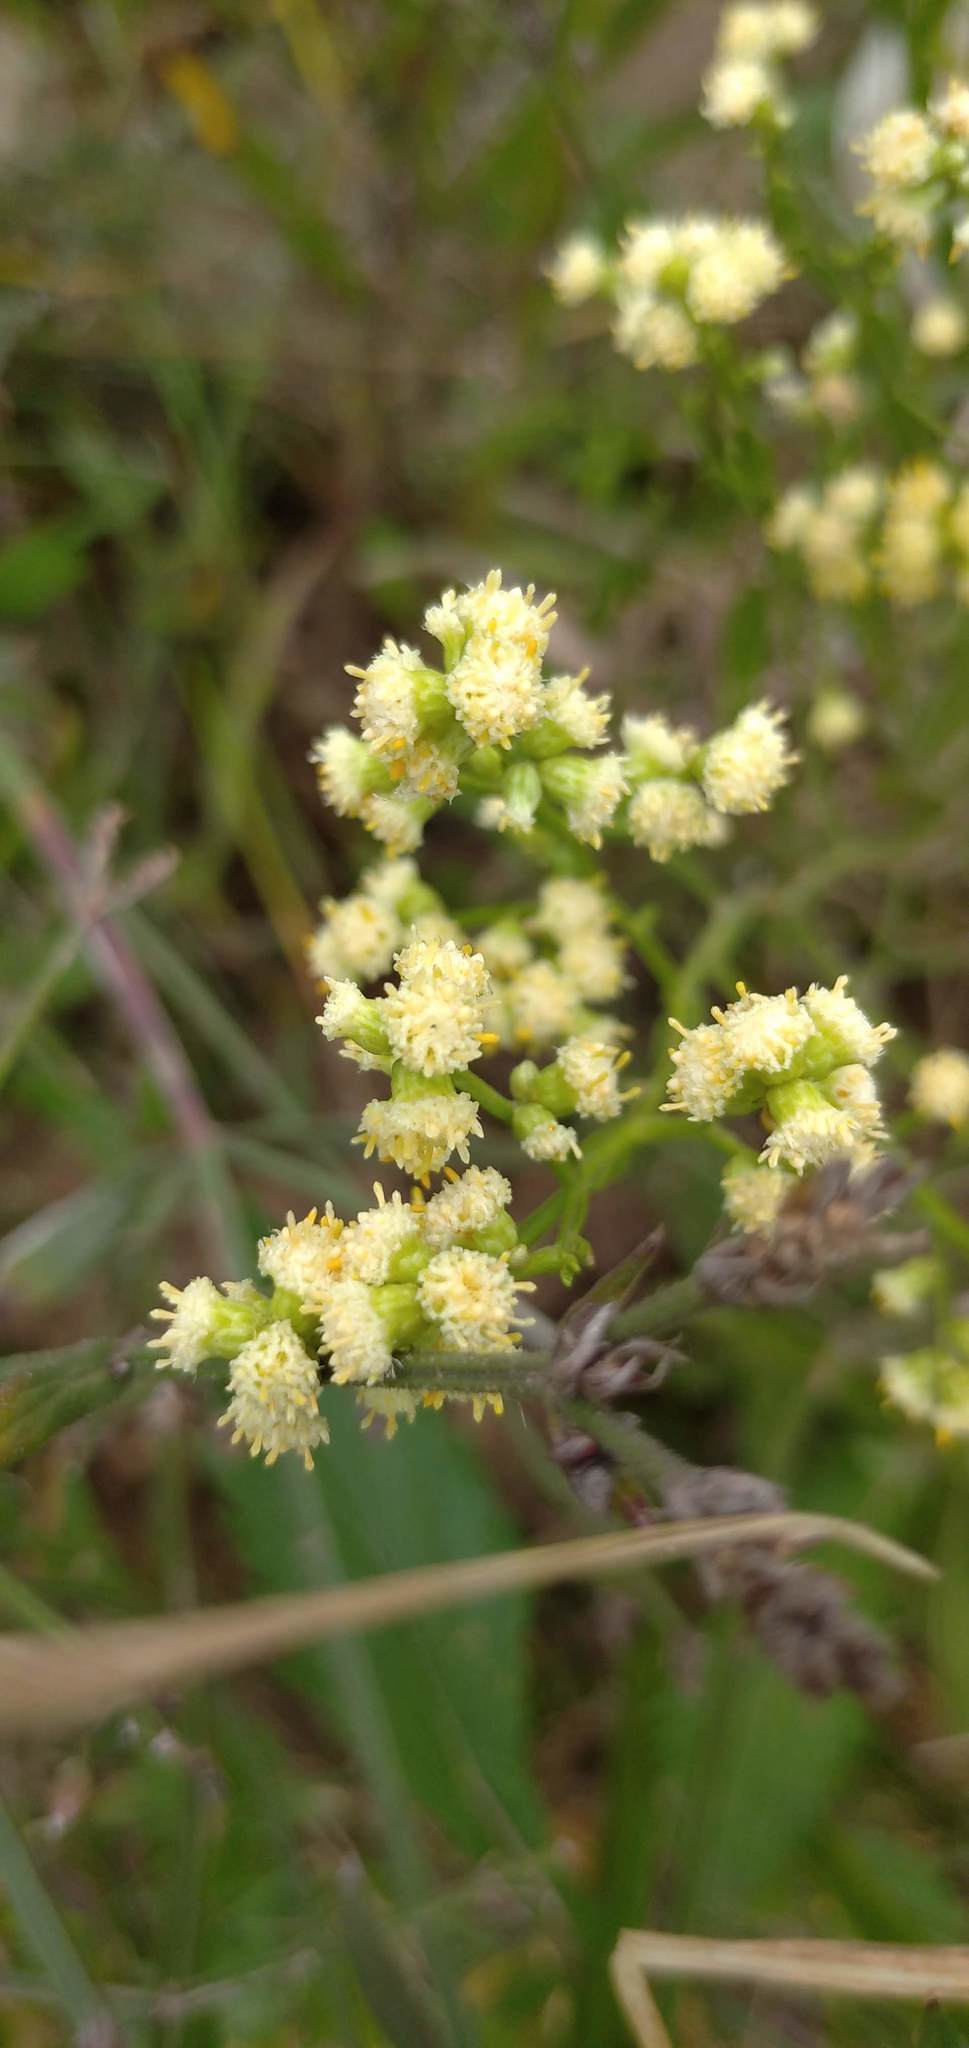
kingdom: Plantae
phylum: Tracheophyta
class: Magnoliopsida
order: Asterales
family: Asteraceae
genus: Baccharis
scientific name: Baccharis articulata
